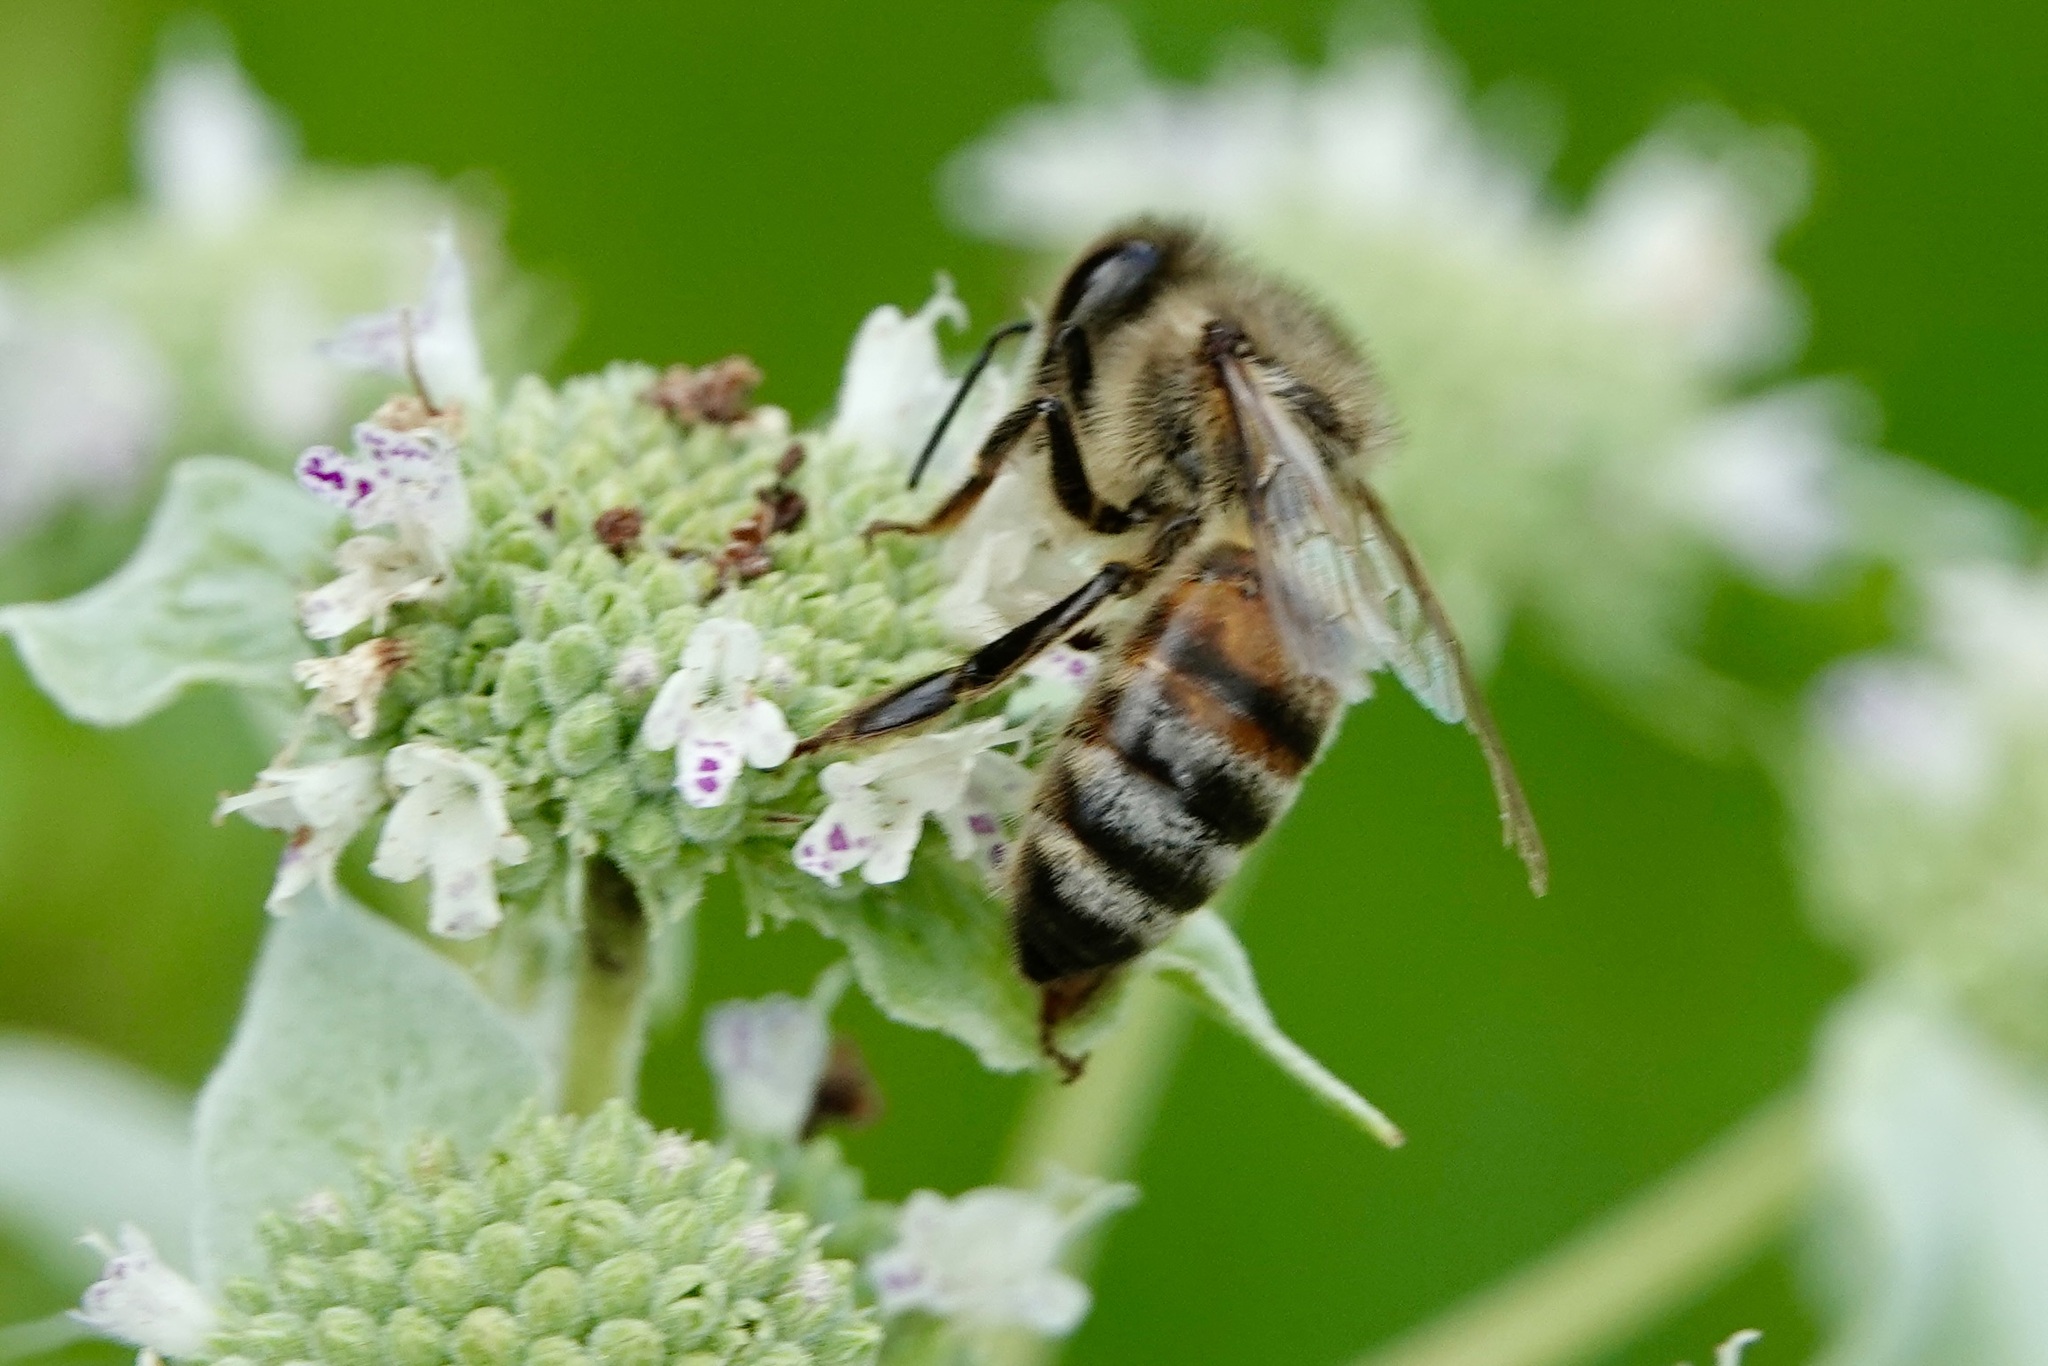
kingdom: Animalia
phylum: Arthropoda
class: Insecta
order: Hymenoptera
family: Apidae
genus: Apis
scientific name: Apis mellifera
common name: Honey bee
